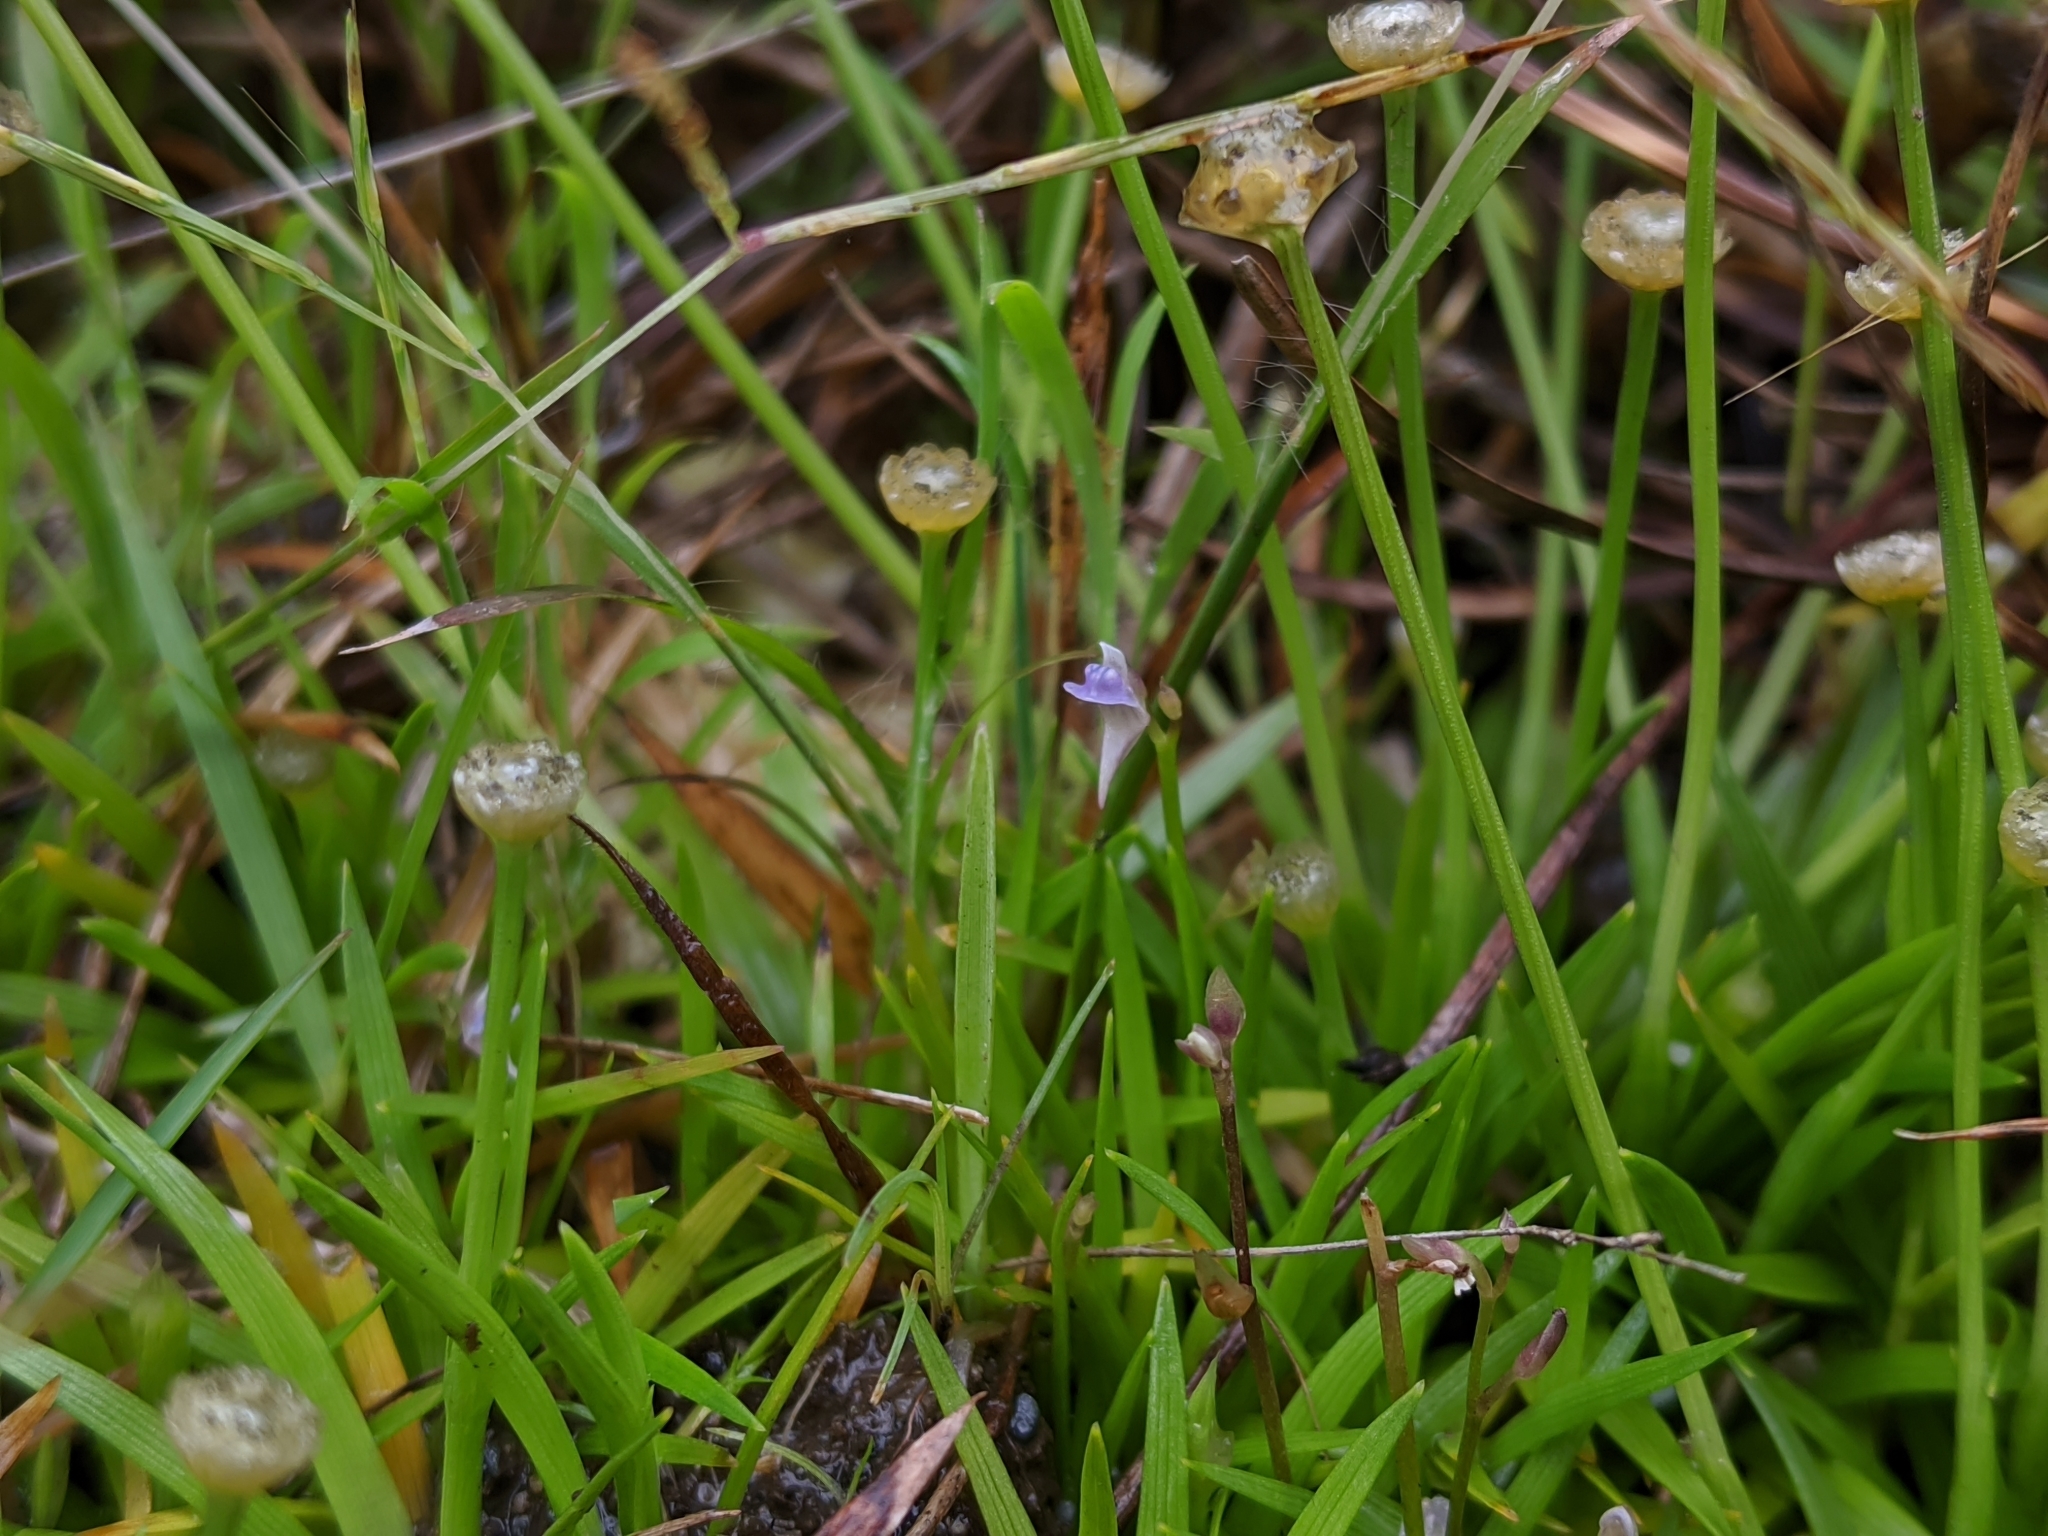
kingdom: Plantae
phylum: Tracheophyta
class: Magnoliopsida
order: Lamiales
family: Lentibulariaceae
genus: Utricularia
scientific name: Utricularia heterosepala
